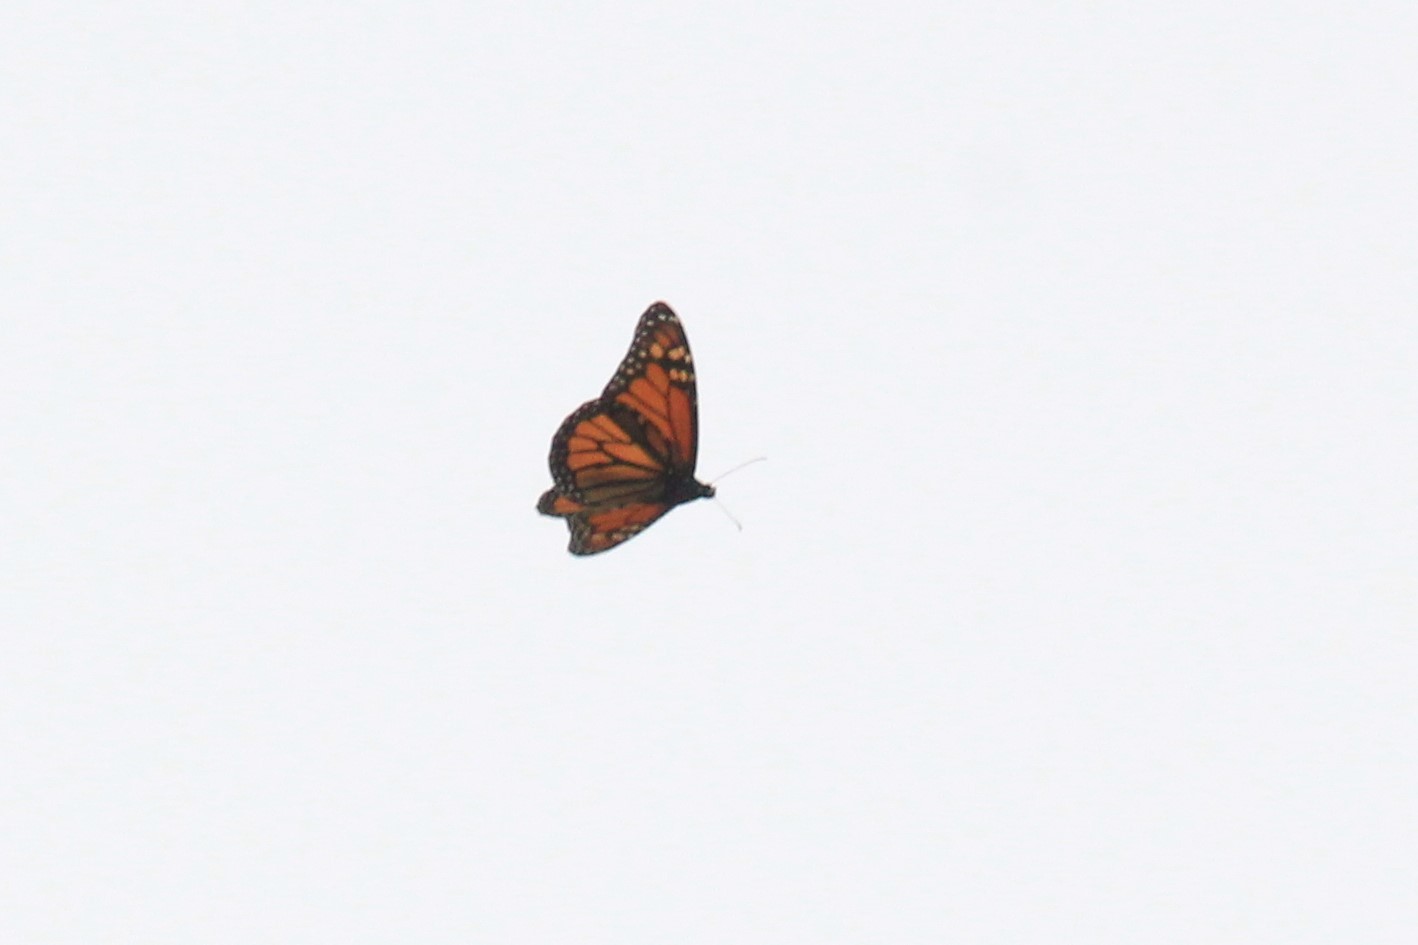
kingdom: Animalia
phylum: Arthropoda
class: Insecta
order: Lepidoptera
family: Nymphalidae
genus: Danaus
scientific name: Danaus plexippus
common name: Monarch
